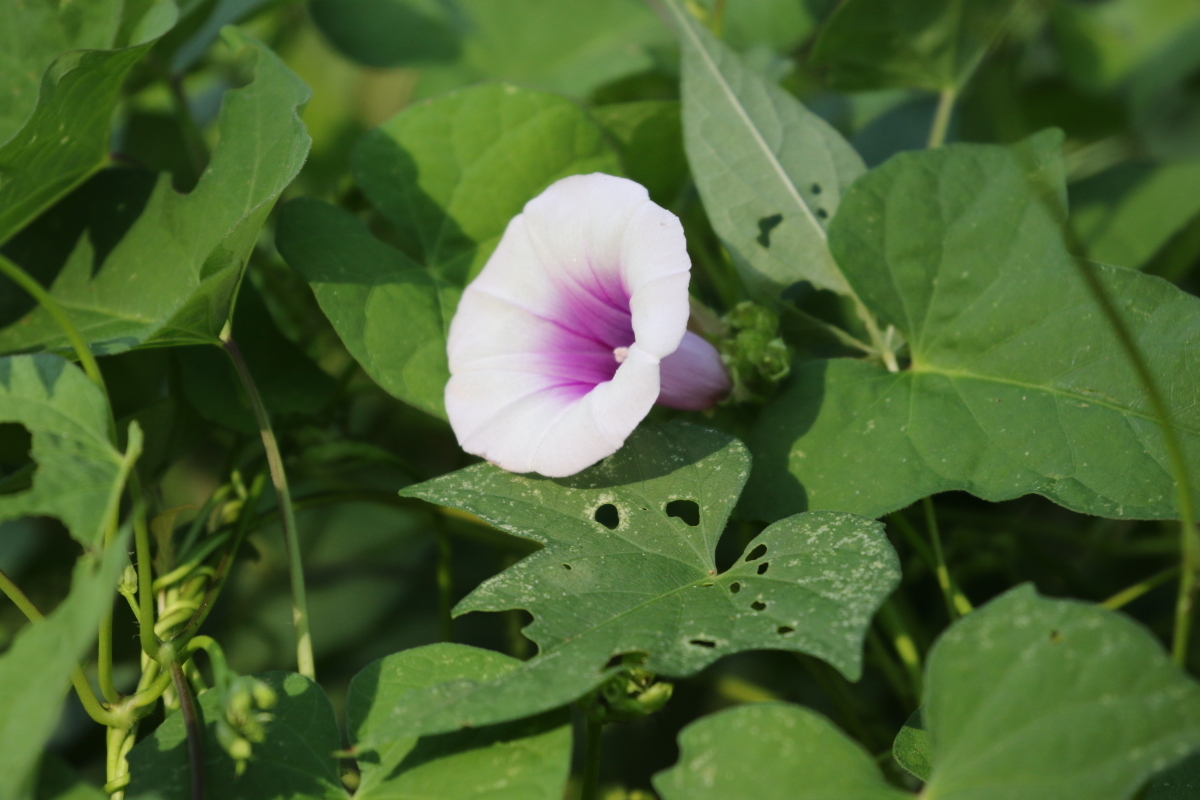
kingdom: Plantae
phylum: Tracheophyta
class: Magnoliopsida
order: Solanales
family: Convolvulaceae
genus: Ipomoea
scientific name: Ipomoea batatas
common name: Sweet-potato
